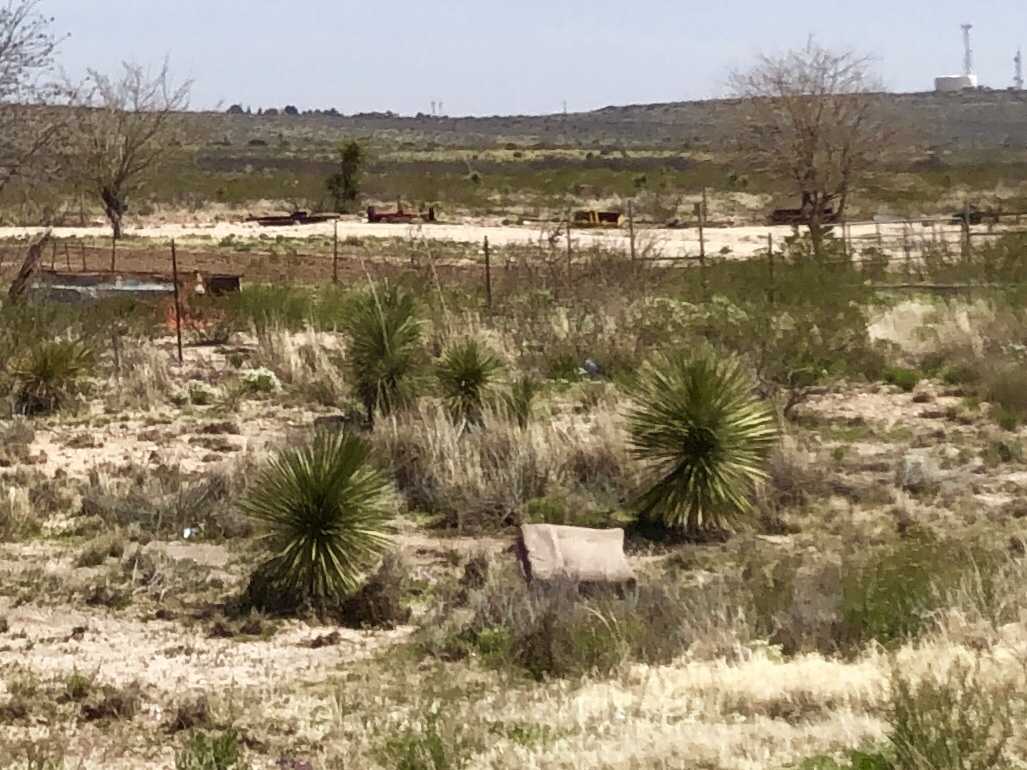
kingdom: Plantae
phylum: Tracheophyta
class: Liliopsida
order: Asparagales
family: Asparagaceae
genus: Yucca
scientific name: Yucca elata
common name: Palmella
